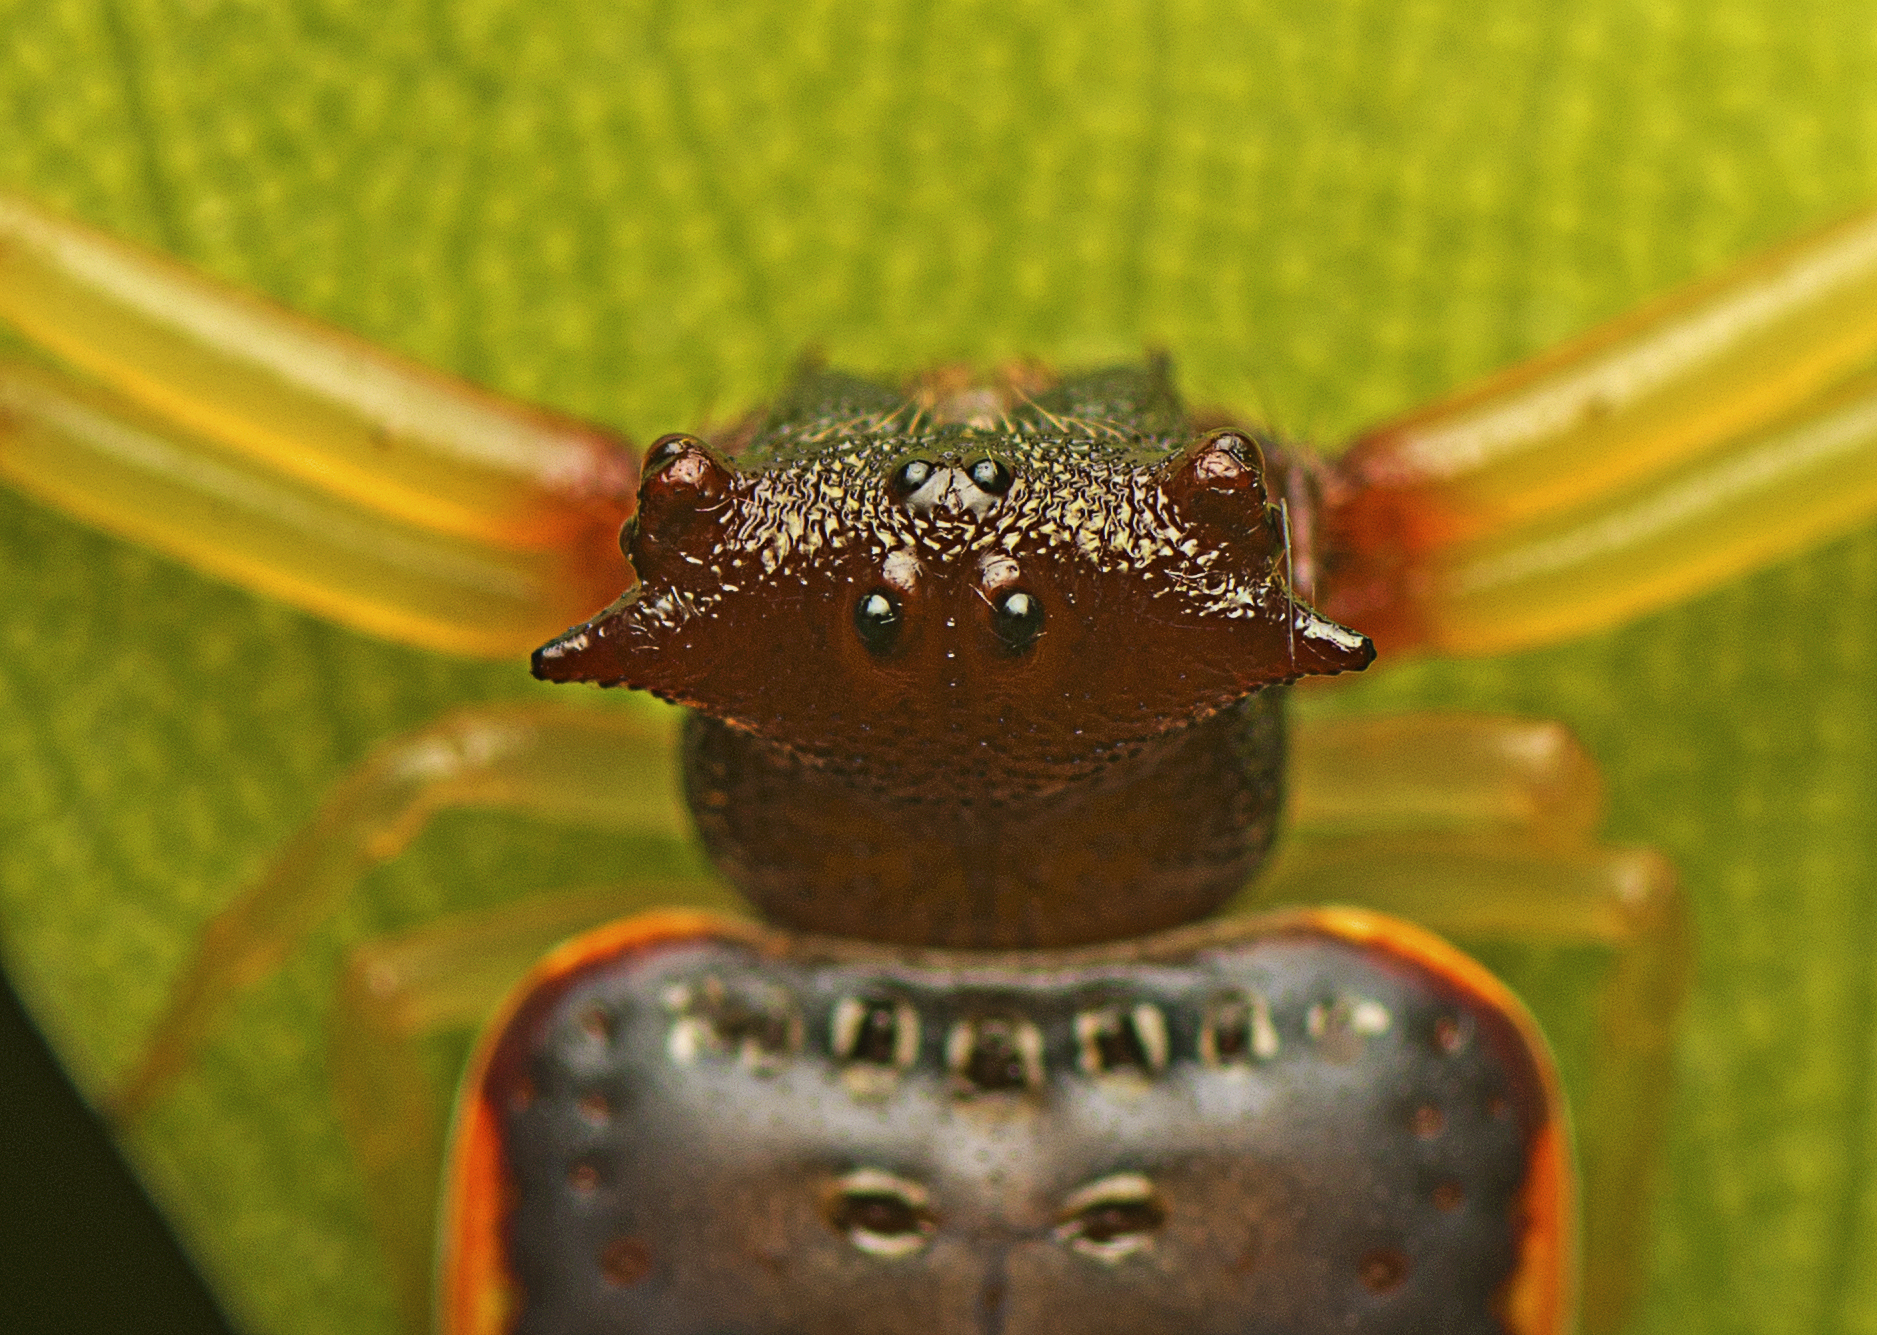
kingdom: Animalia
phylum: Arthropoda
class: Arachnida
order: Araneae
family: Arkyidae
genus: Arkys
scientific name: Arkys cornutus
